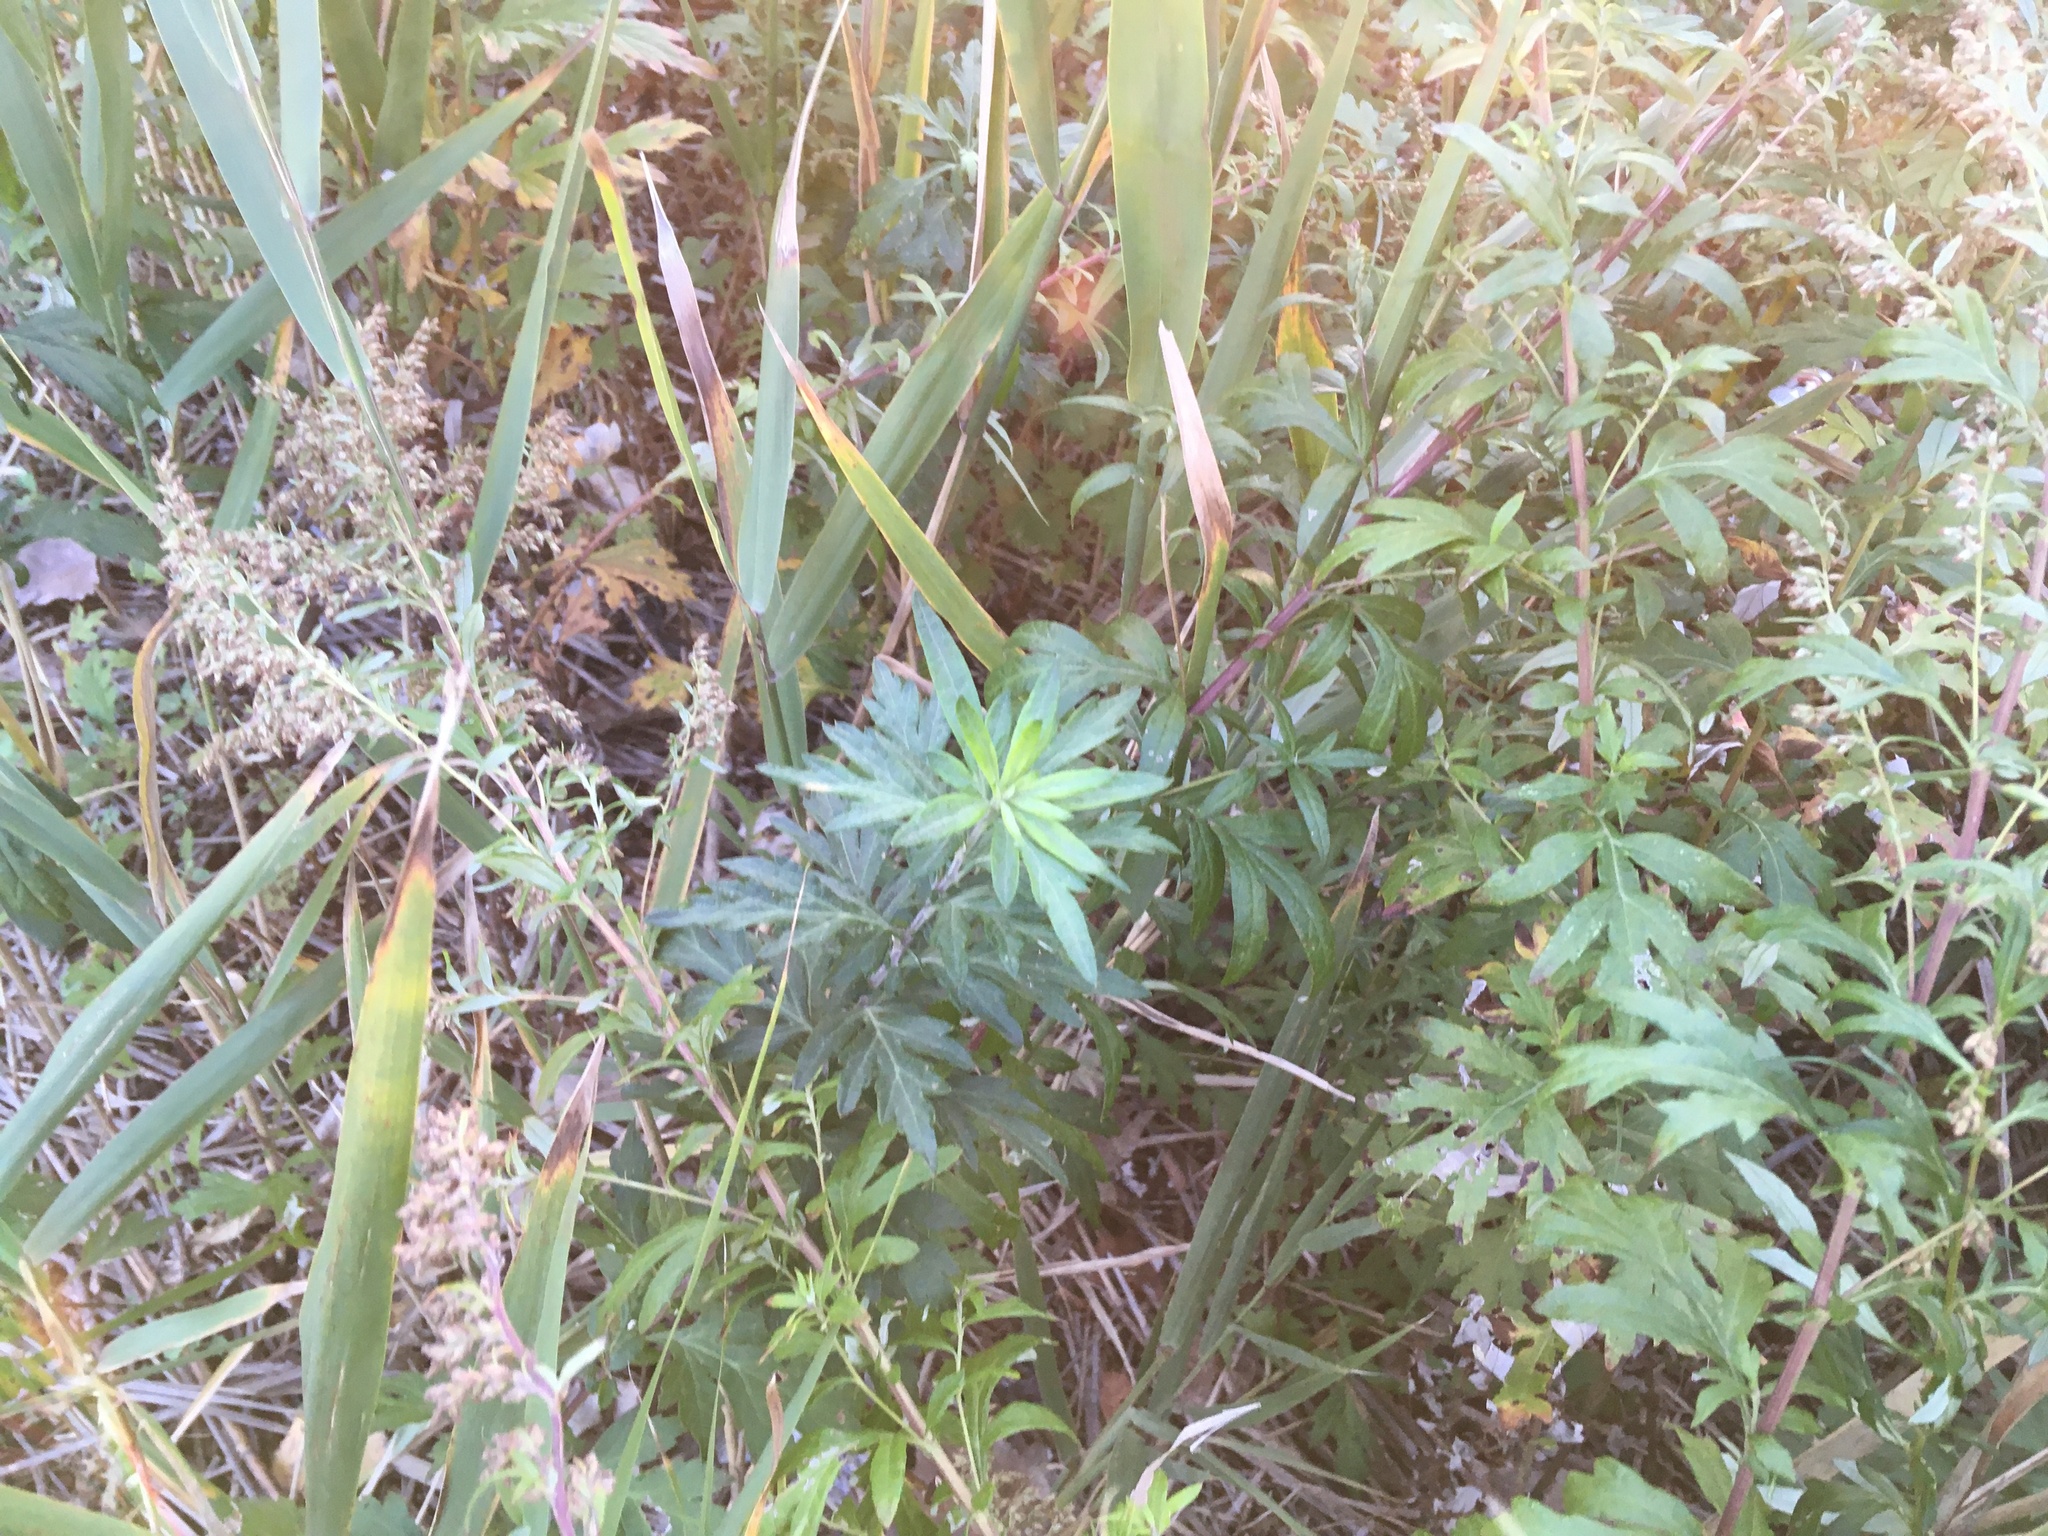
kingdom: Plantae
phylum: Tracheophyta
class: Magnoliopsida
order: Asterales
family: Asteraceae
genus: Artemisia
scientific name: Artemisia vulgaris
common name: Mugwort
